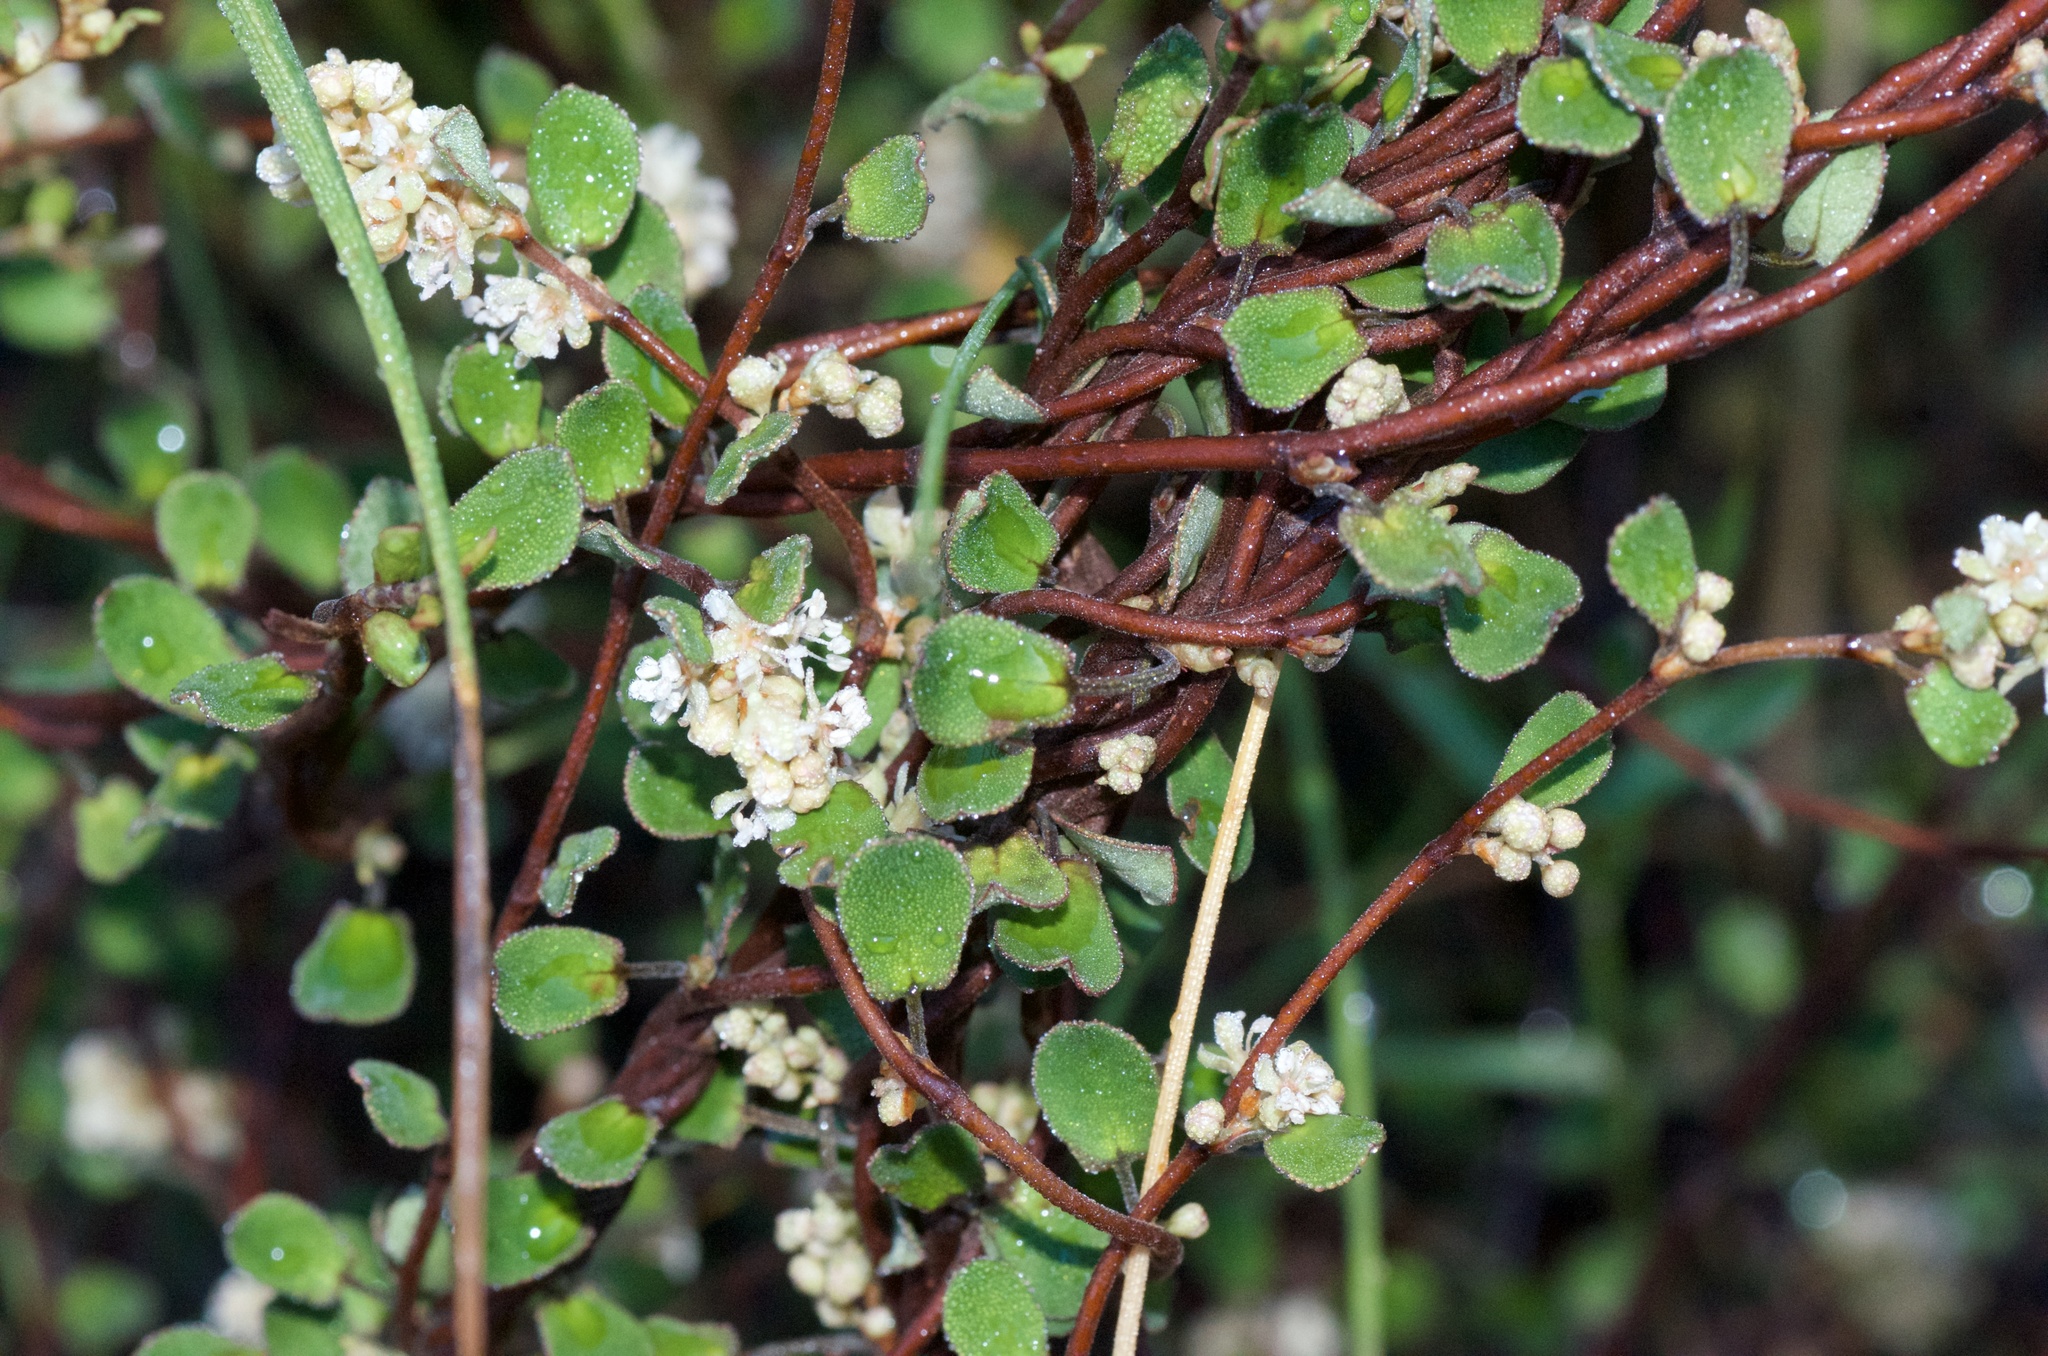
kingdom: Plantae
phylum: Tracheophyta
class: Magnoliopsida
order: Caryophyllales
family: Polygonaceae
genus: Muehlenbeckia
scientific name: Muehlenbeckia complexa
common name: Wireplant
